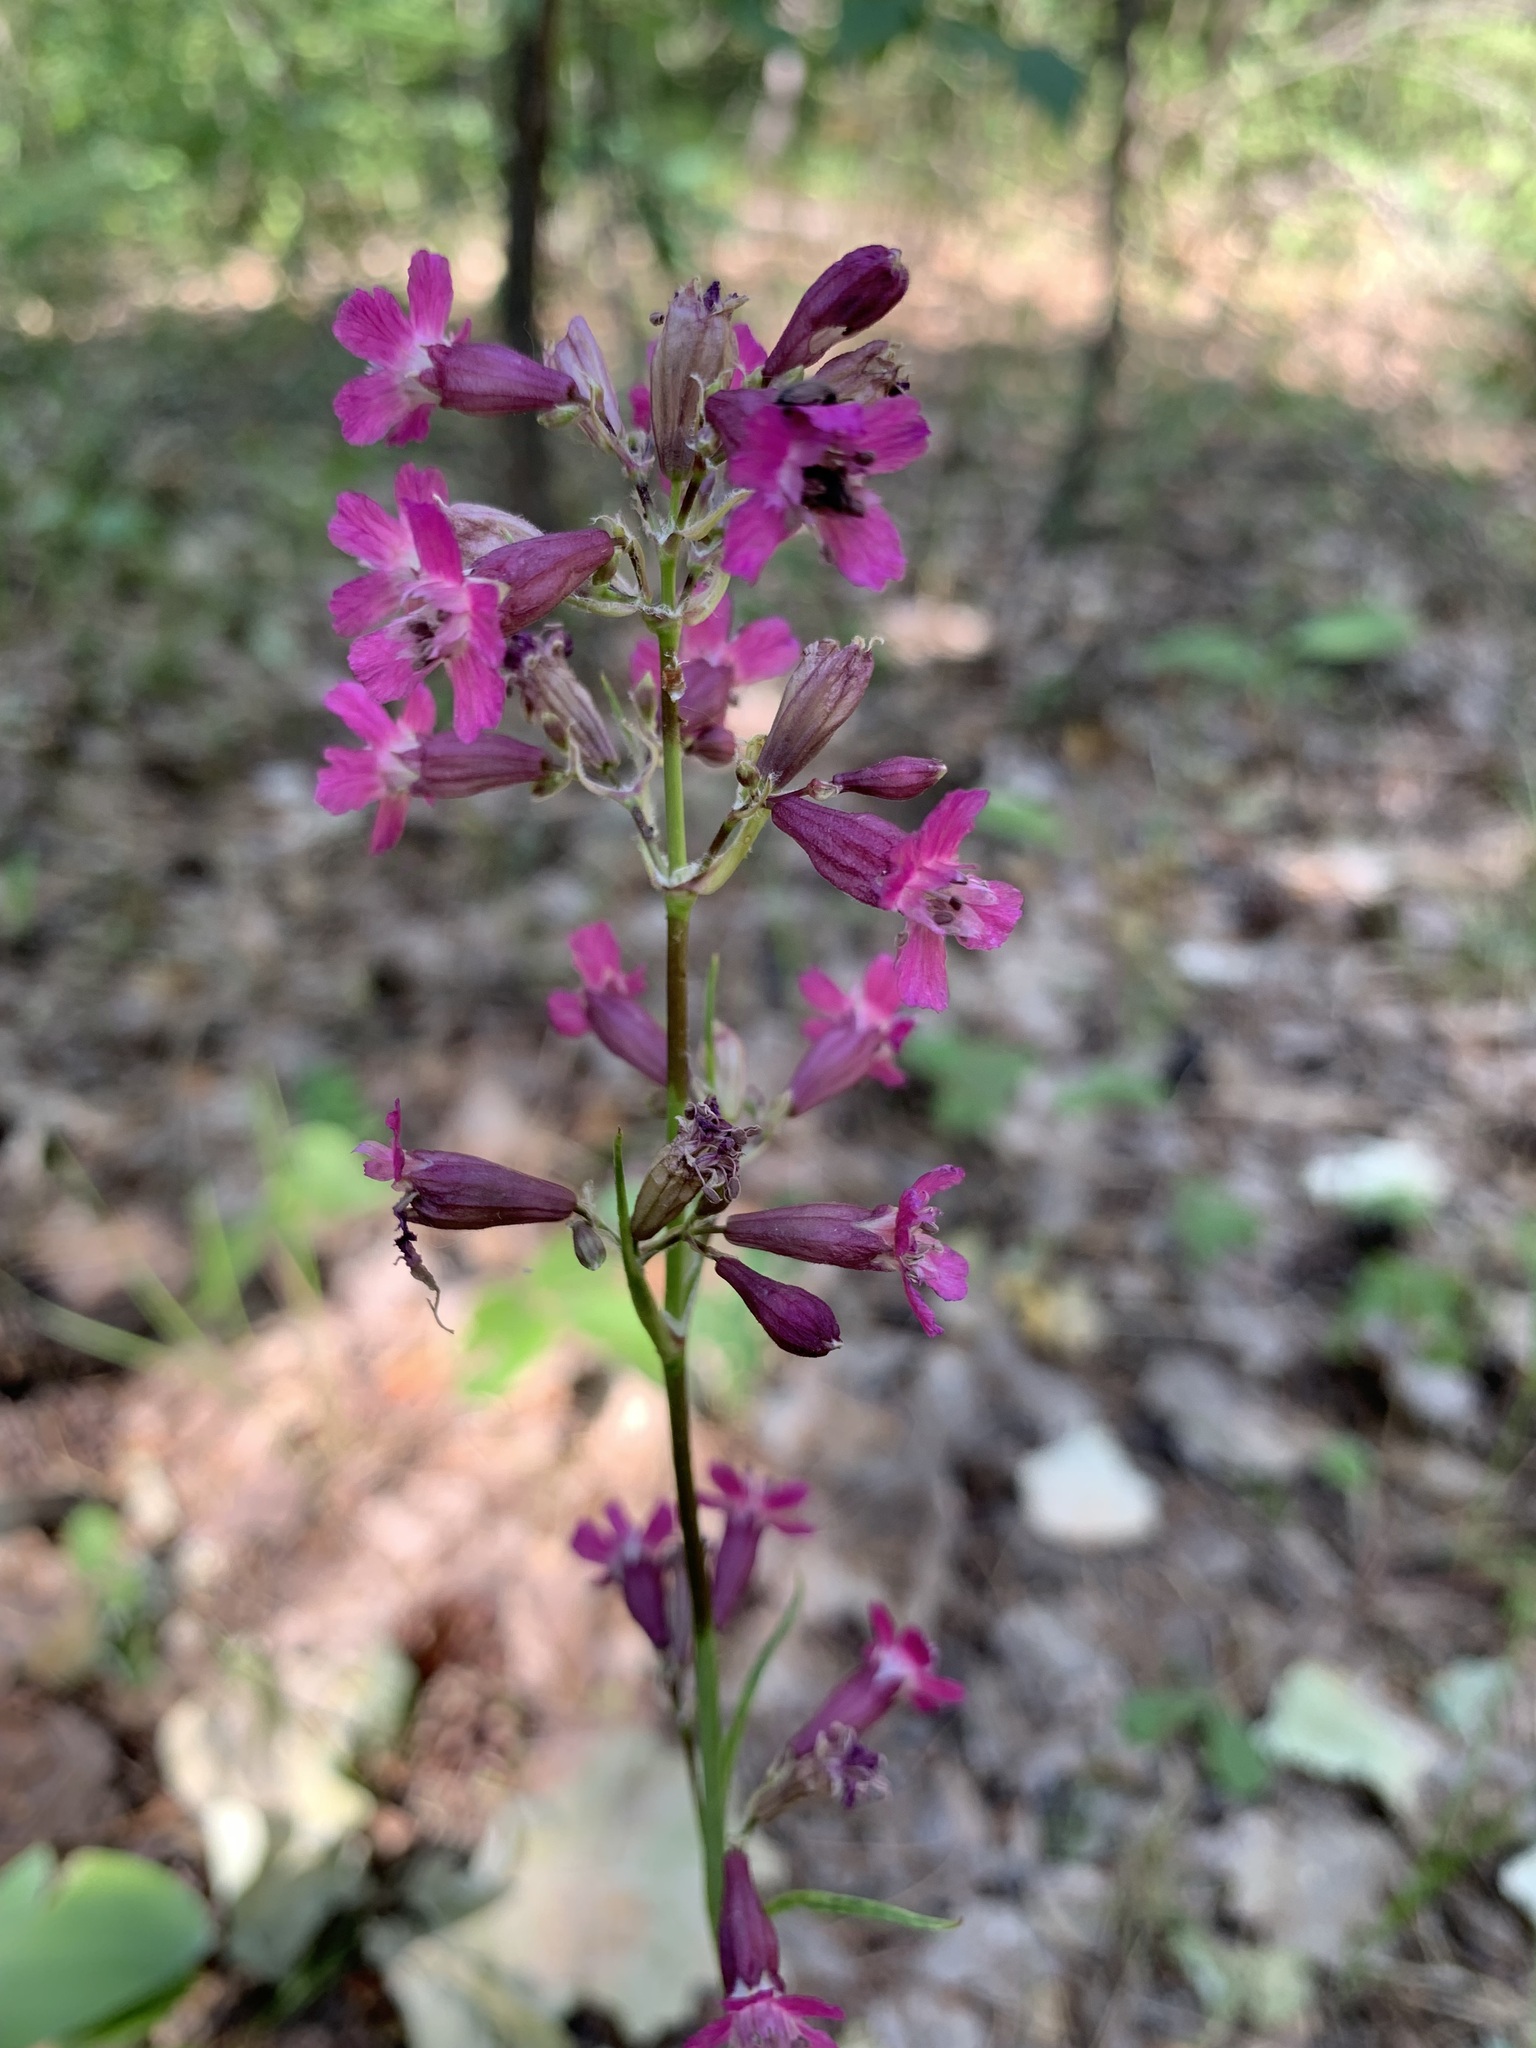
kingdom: Plantae
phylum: Tracheophyta
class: Magnoliopsida
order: Caryophyllales
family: Caryophyllaceae
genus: Viscaria
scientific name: Viscaria vulgaris
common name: Clammy campion
